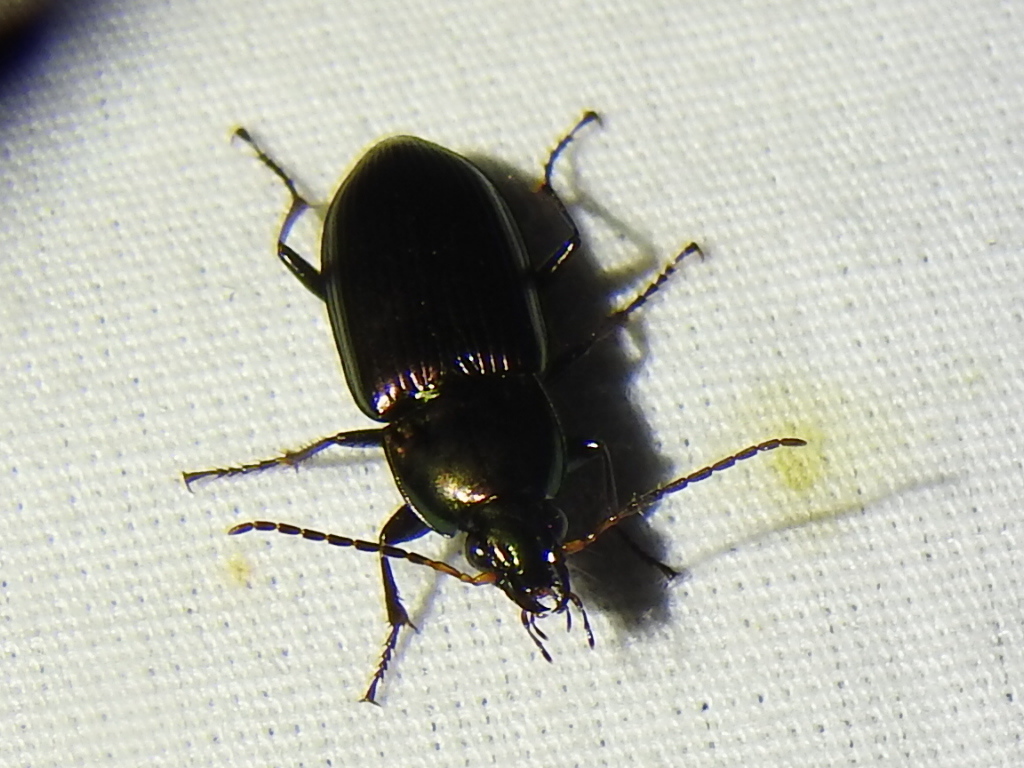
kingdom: Animalia
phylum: Arthropoda
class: Insecta
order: Coleoptera
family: Carabidae
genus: Poecilus
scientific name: Poecilus chalcites
